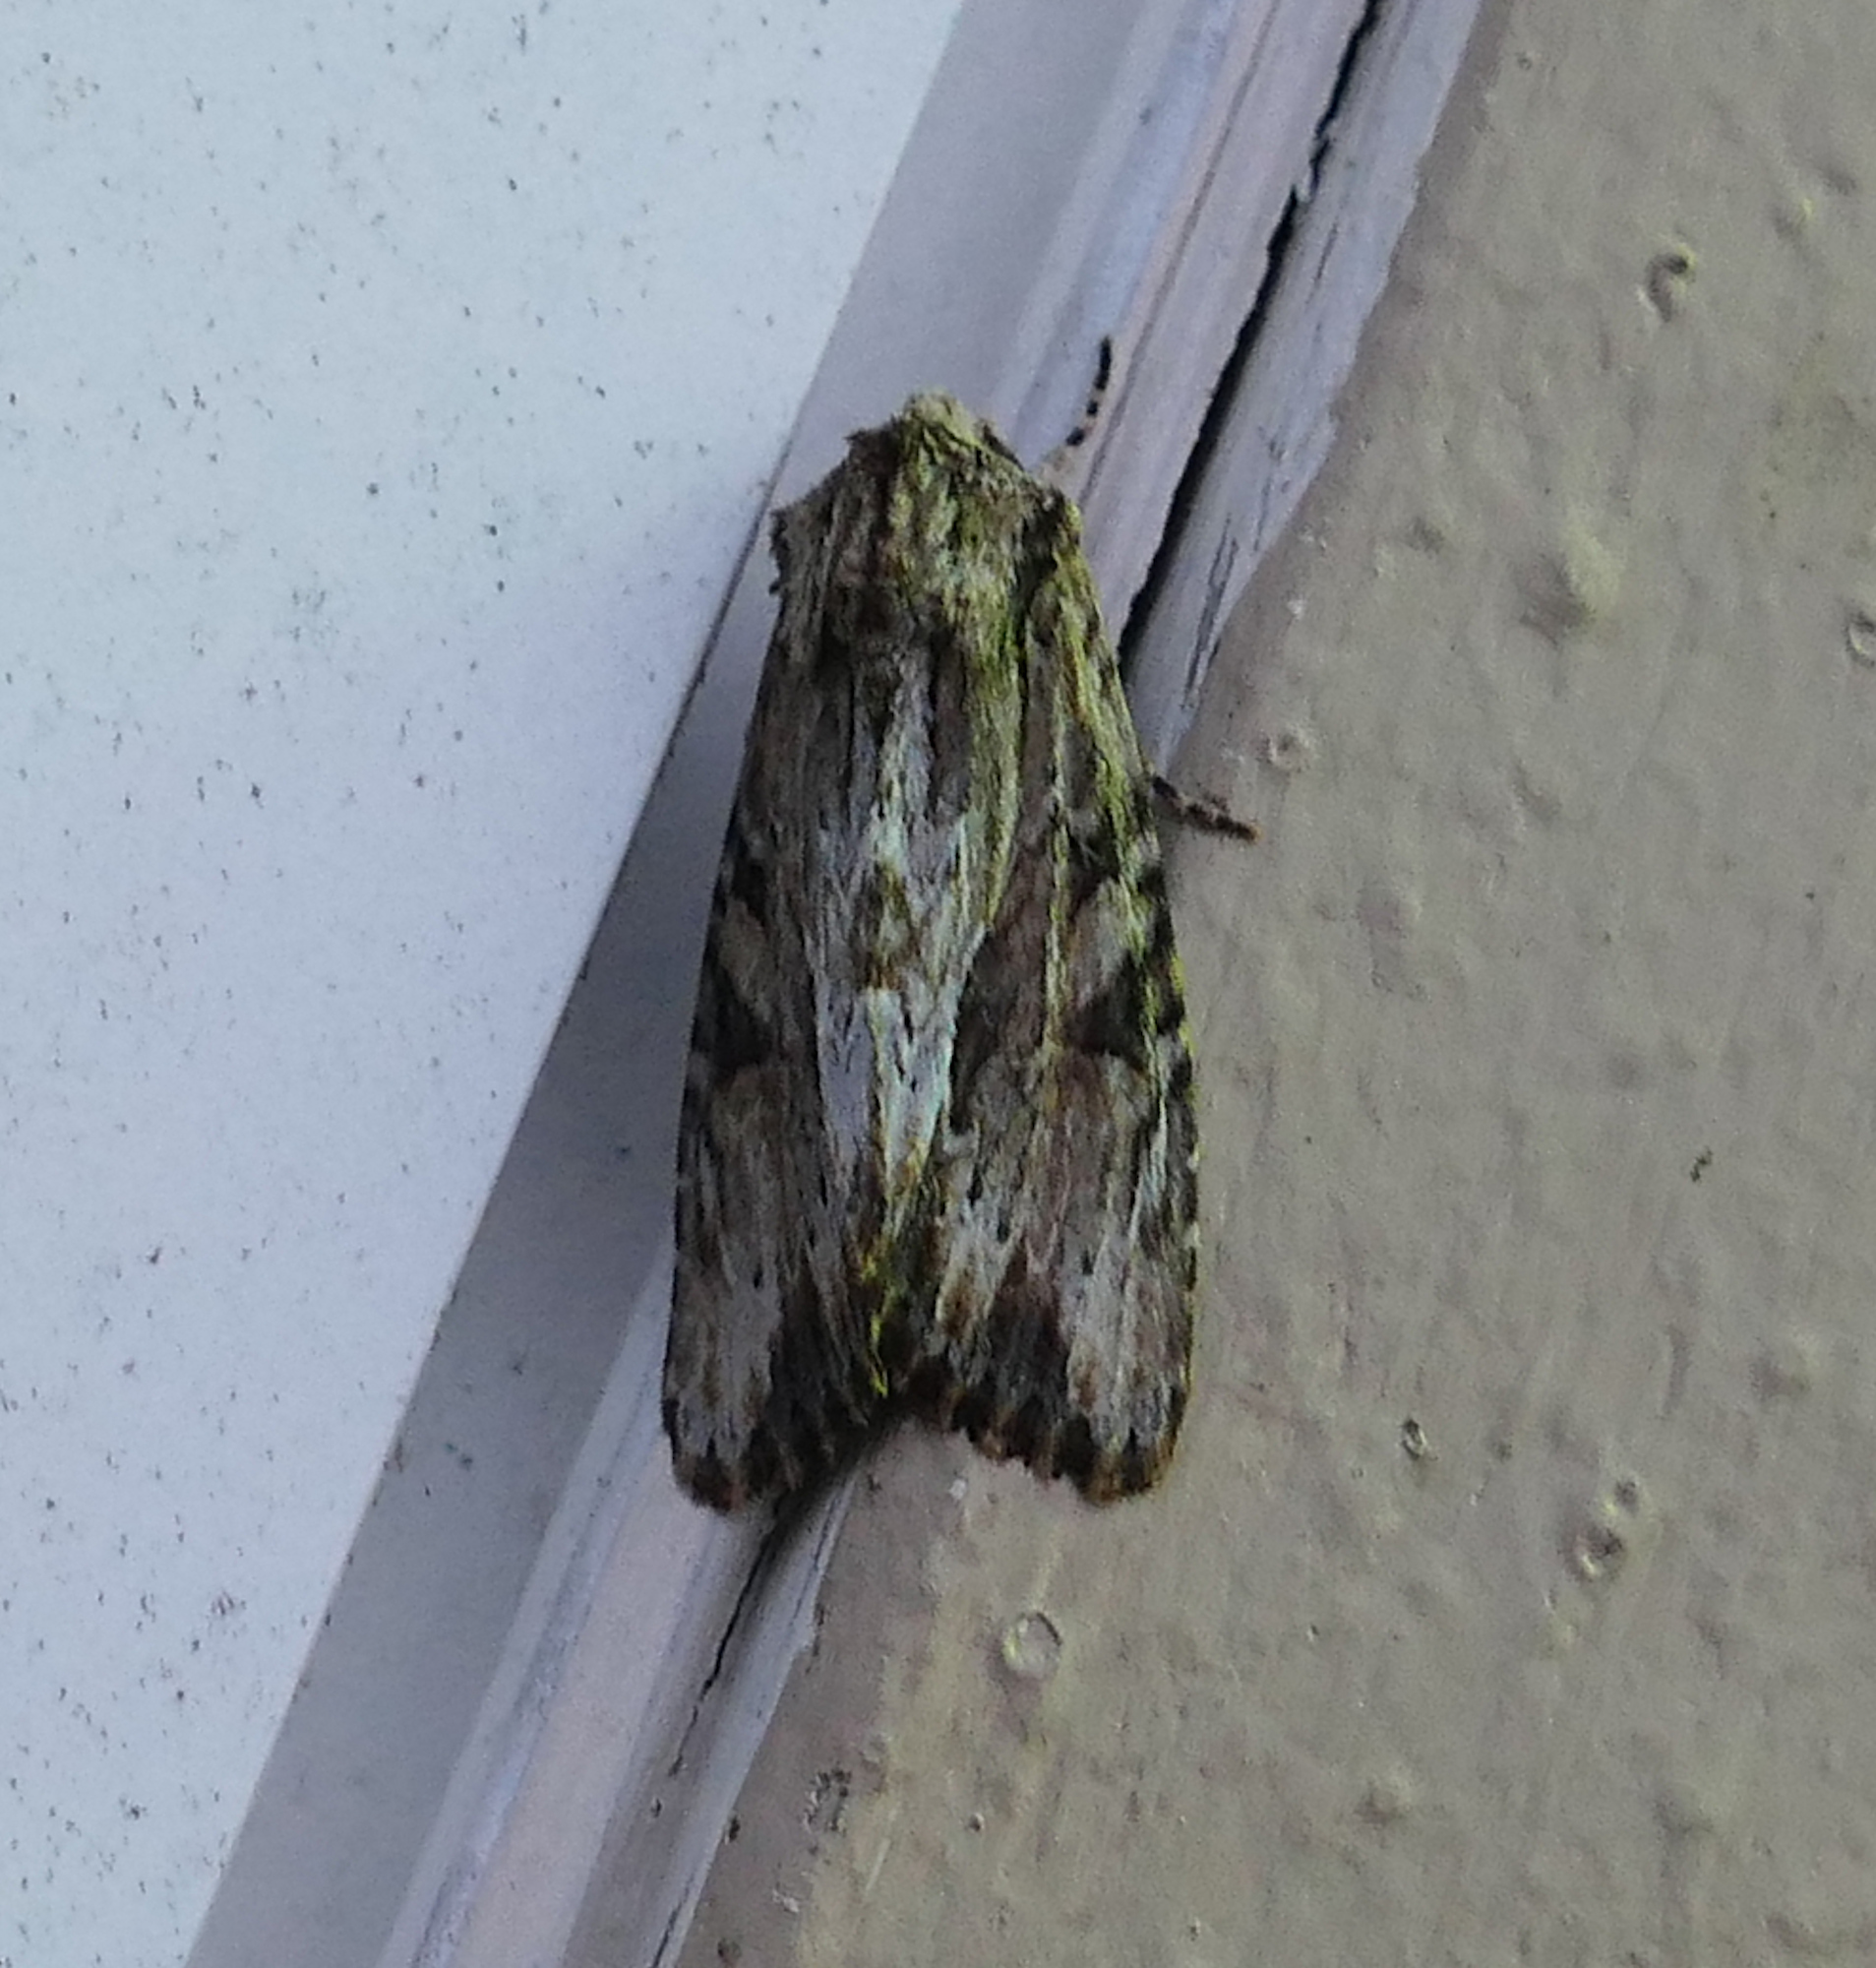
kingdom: Animalia
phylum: Arthropoda
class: Insecta
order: Lepidoptera
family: Noctuidae
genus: Achatia
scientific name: Achatia mucens
